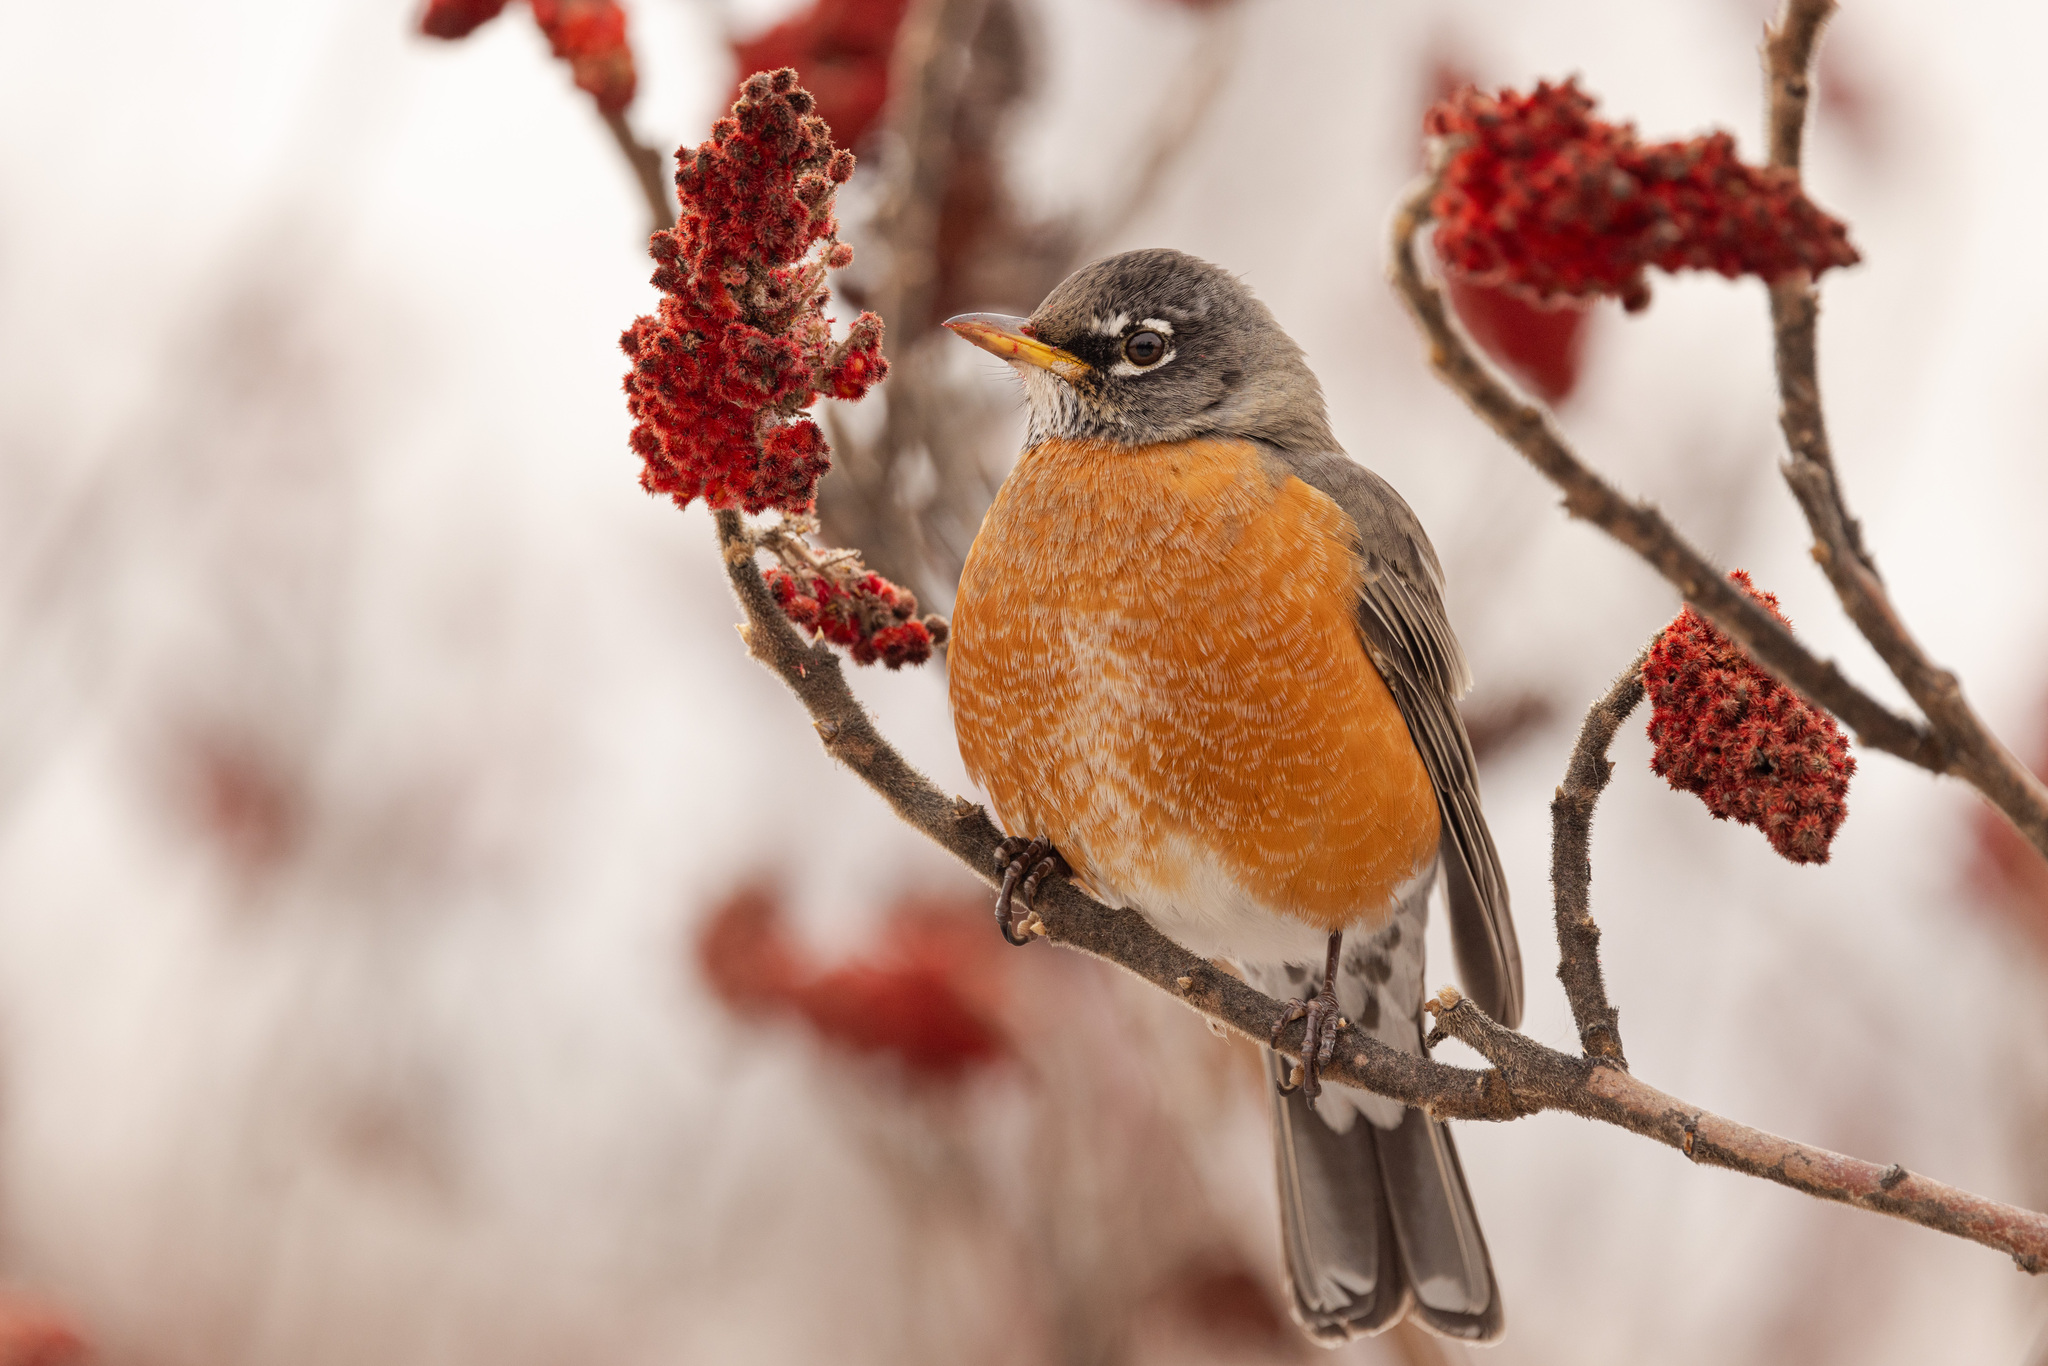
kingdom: Animalia
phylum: Chordata
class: Aves
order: Passeriformes
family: Turdidae
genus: Turdus
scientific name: Turdus migratorius
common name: American robin
